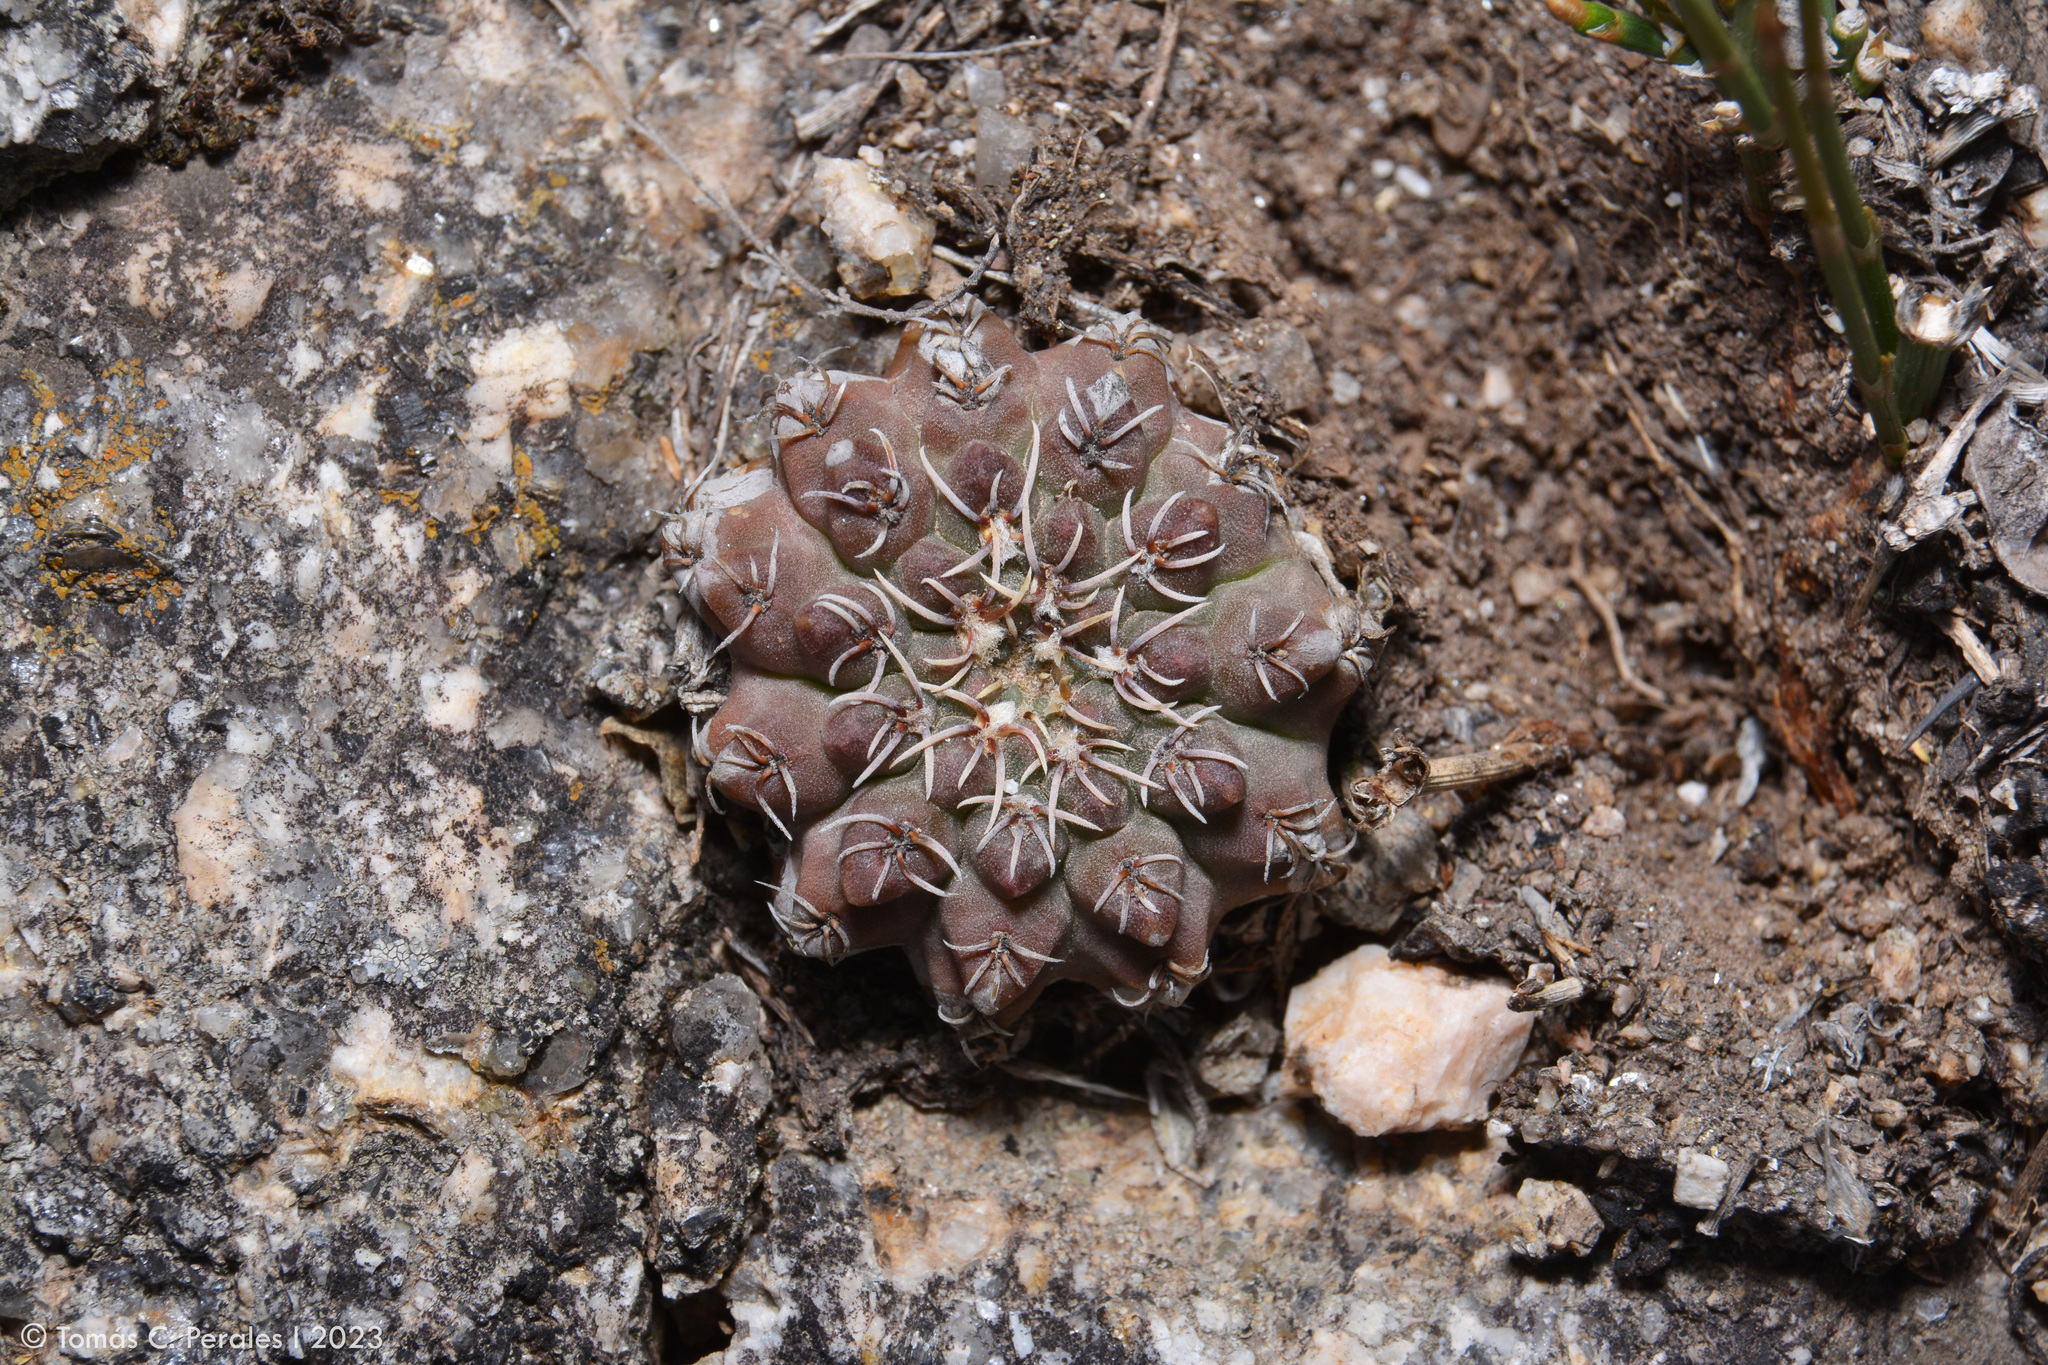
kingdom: Plantae
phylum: Tracheophyta
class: Magnoliopsida
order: Caryophyllales
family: Cactaceae
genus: Gymnocalycium
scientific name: Gymnocalycium quehlianum
